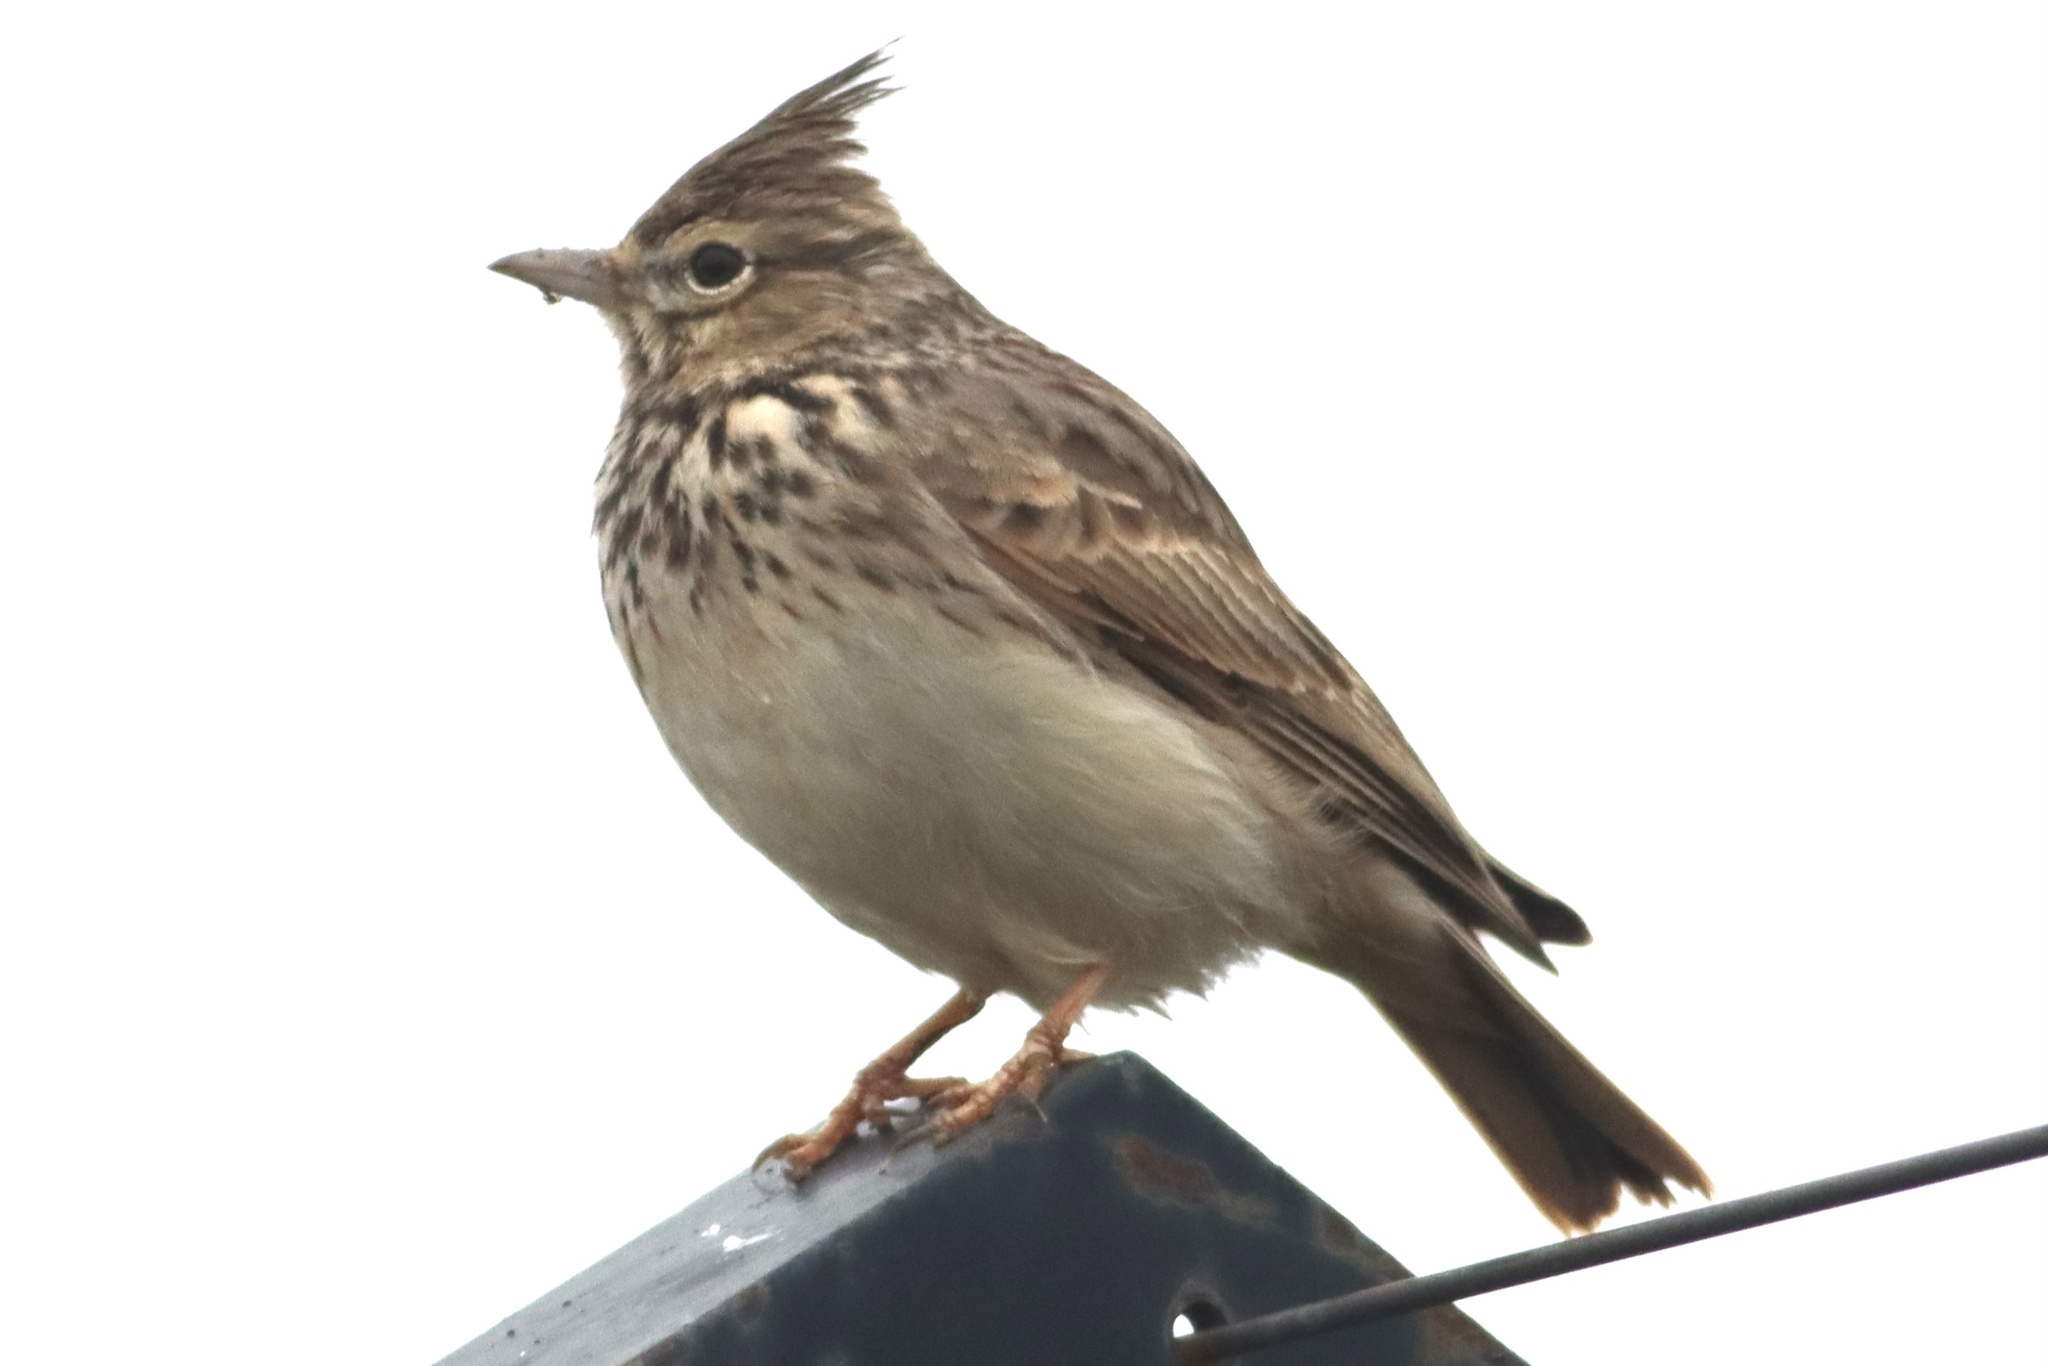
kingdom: Animalia
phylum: Chordata
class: Aves
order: Passeriformes
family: Alaudidae
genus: Galerida
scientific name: Galerida theklae
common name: Thekla lark
